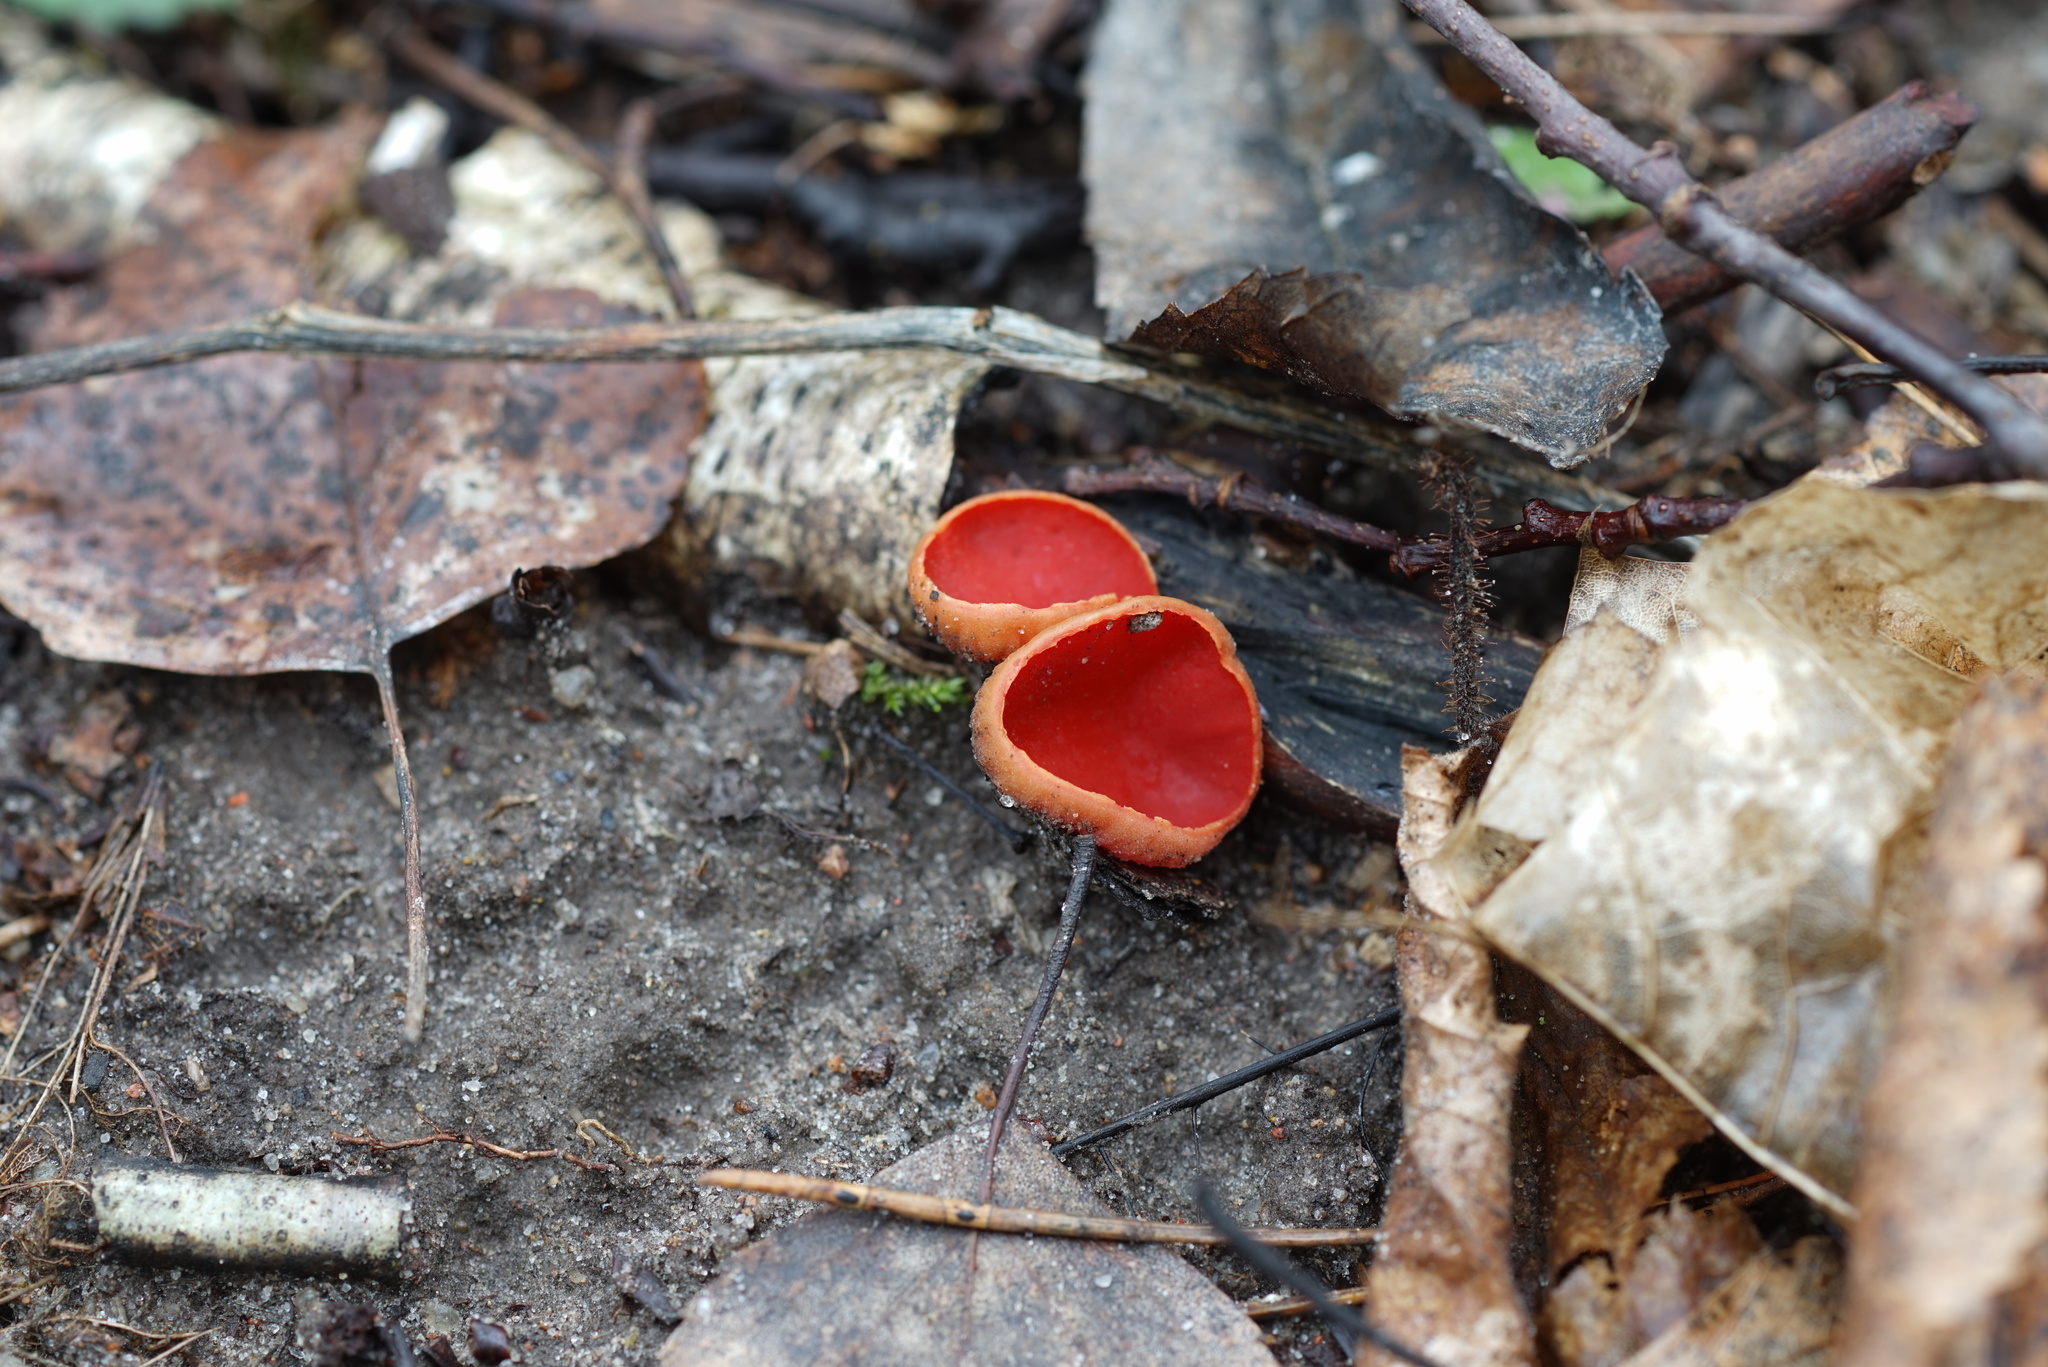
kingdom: Fungi
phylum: Ascomycota
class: Pezizomycetes
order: Pezizales
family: Sarcoscyphaceae
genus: Sarcoscypha
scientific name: Sarcoscypha
